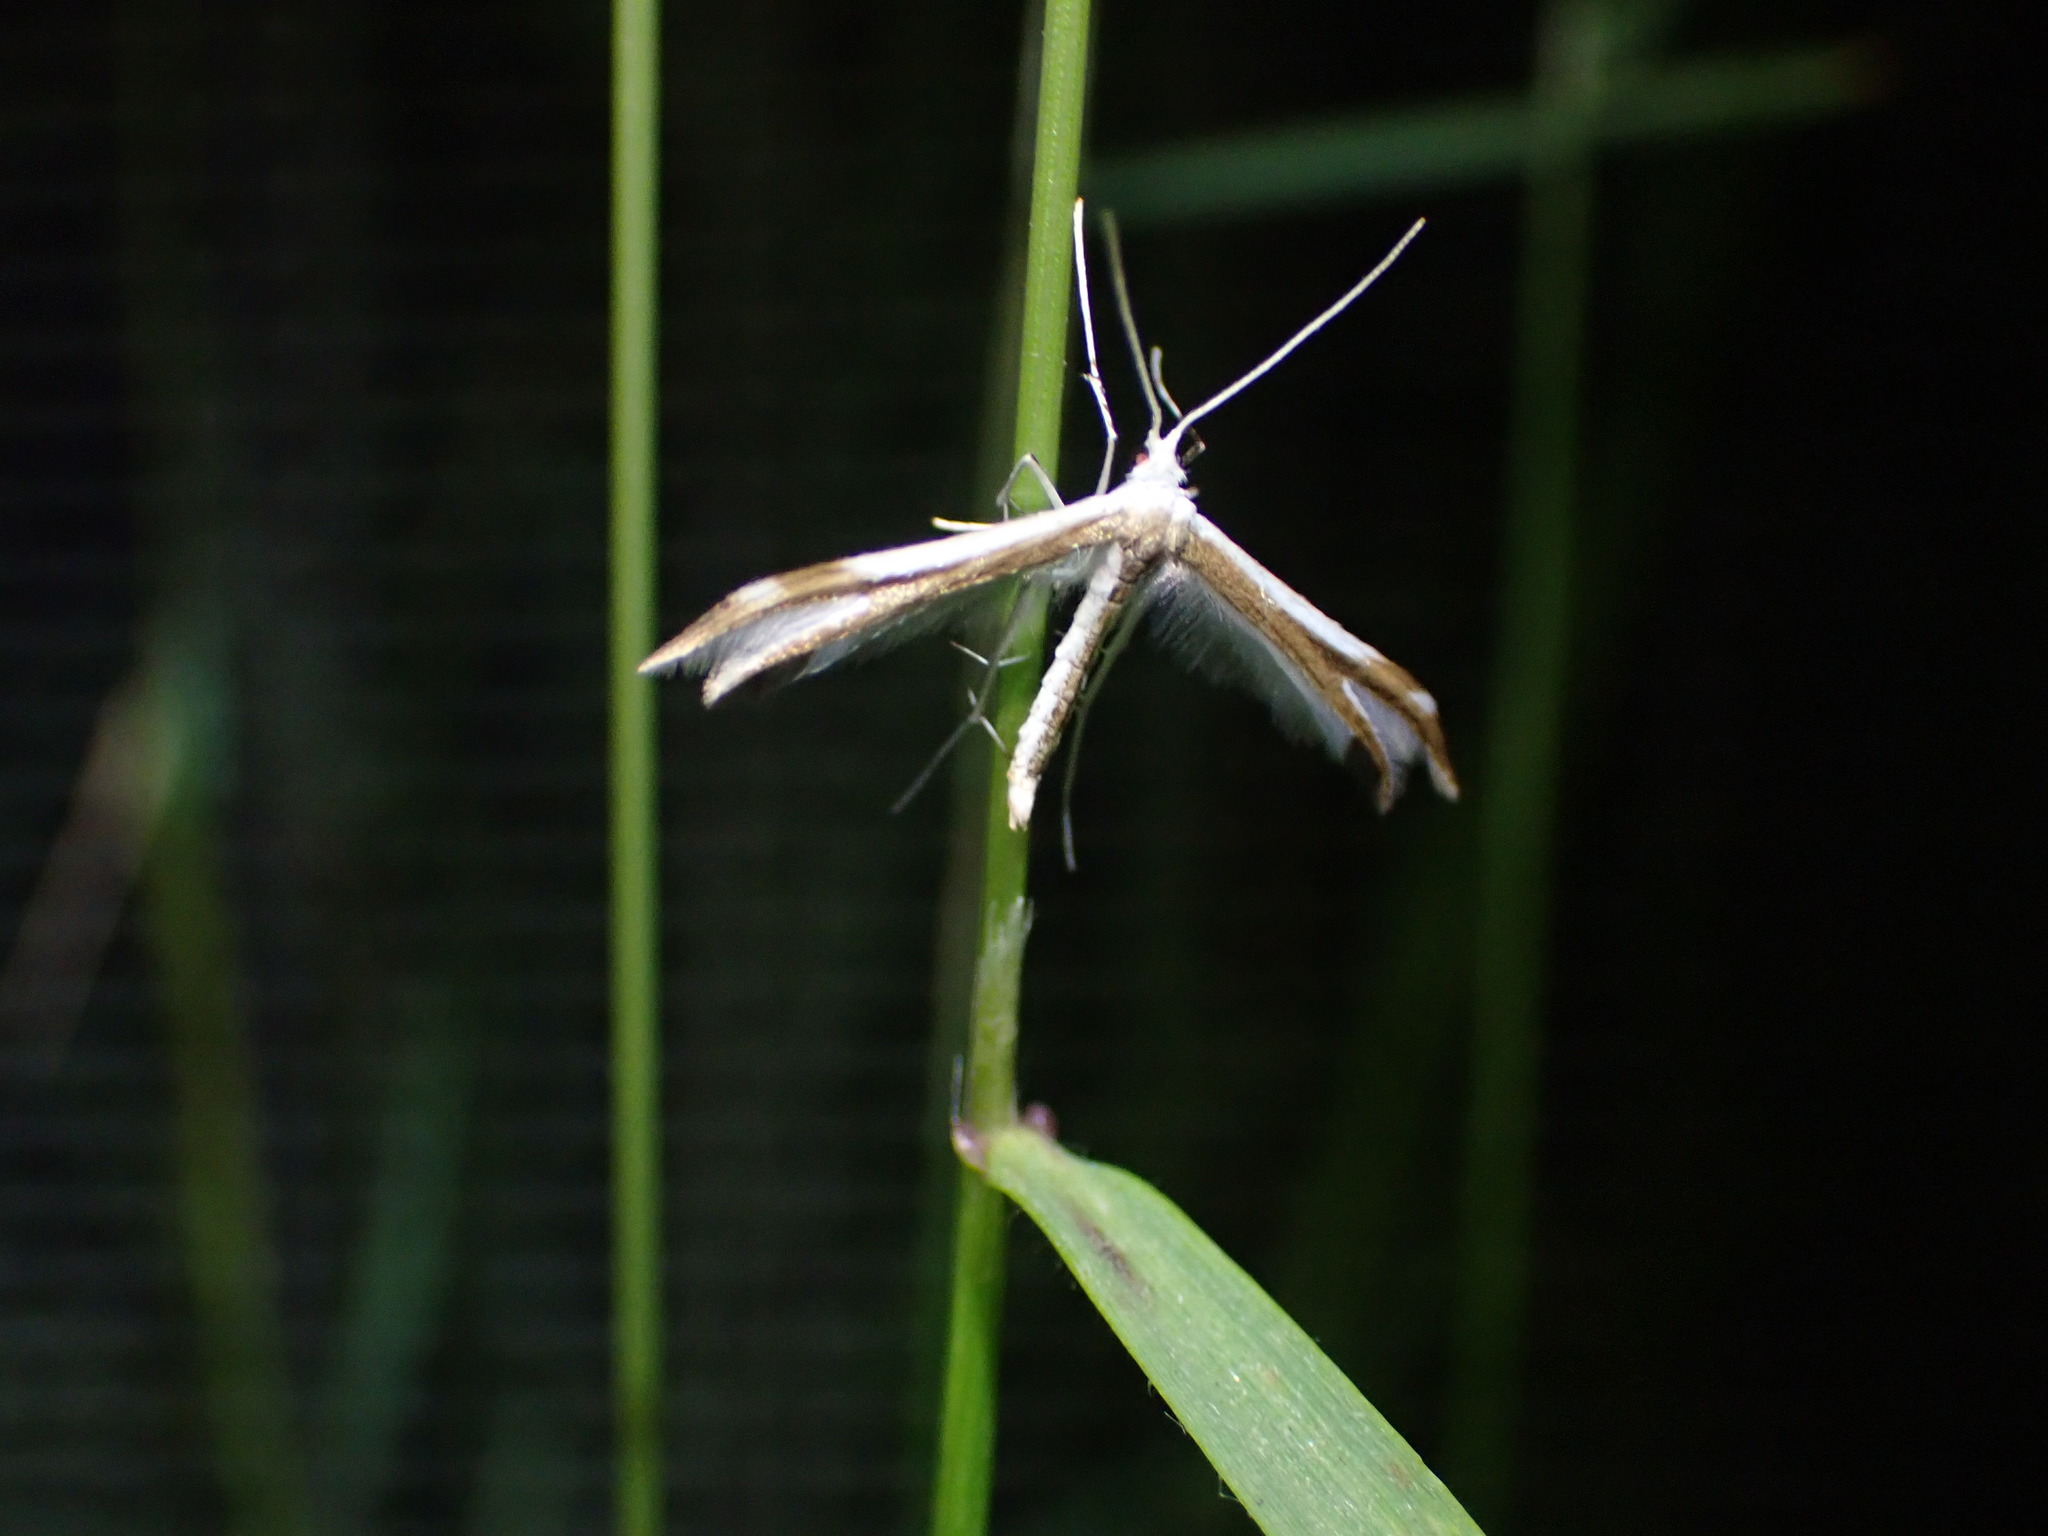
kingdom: Animalia
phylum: Arthropoda
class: Insecta
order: Lepidoptera
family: Pterophoridae
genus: Pterophorus
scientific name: Pterophorus furcatalis
